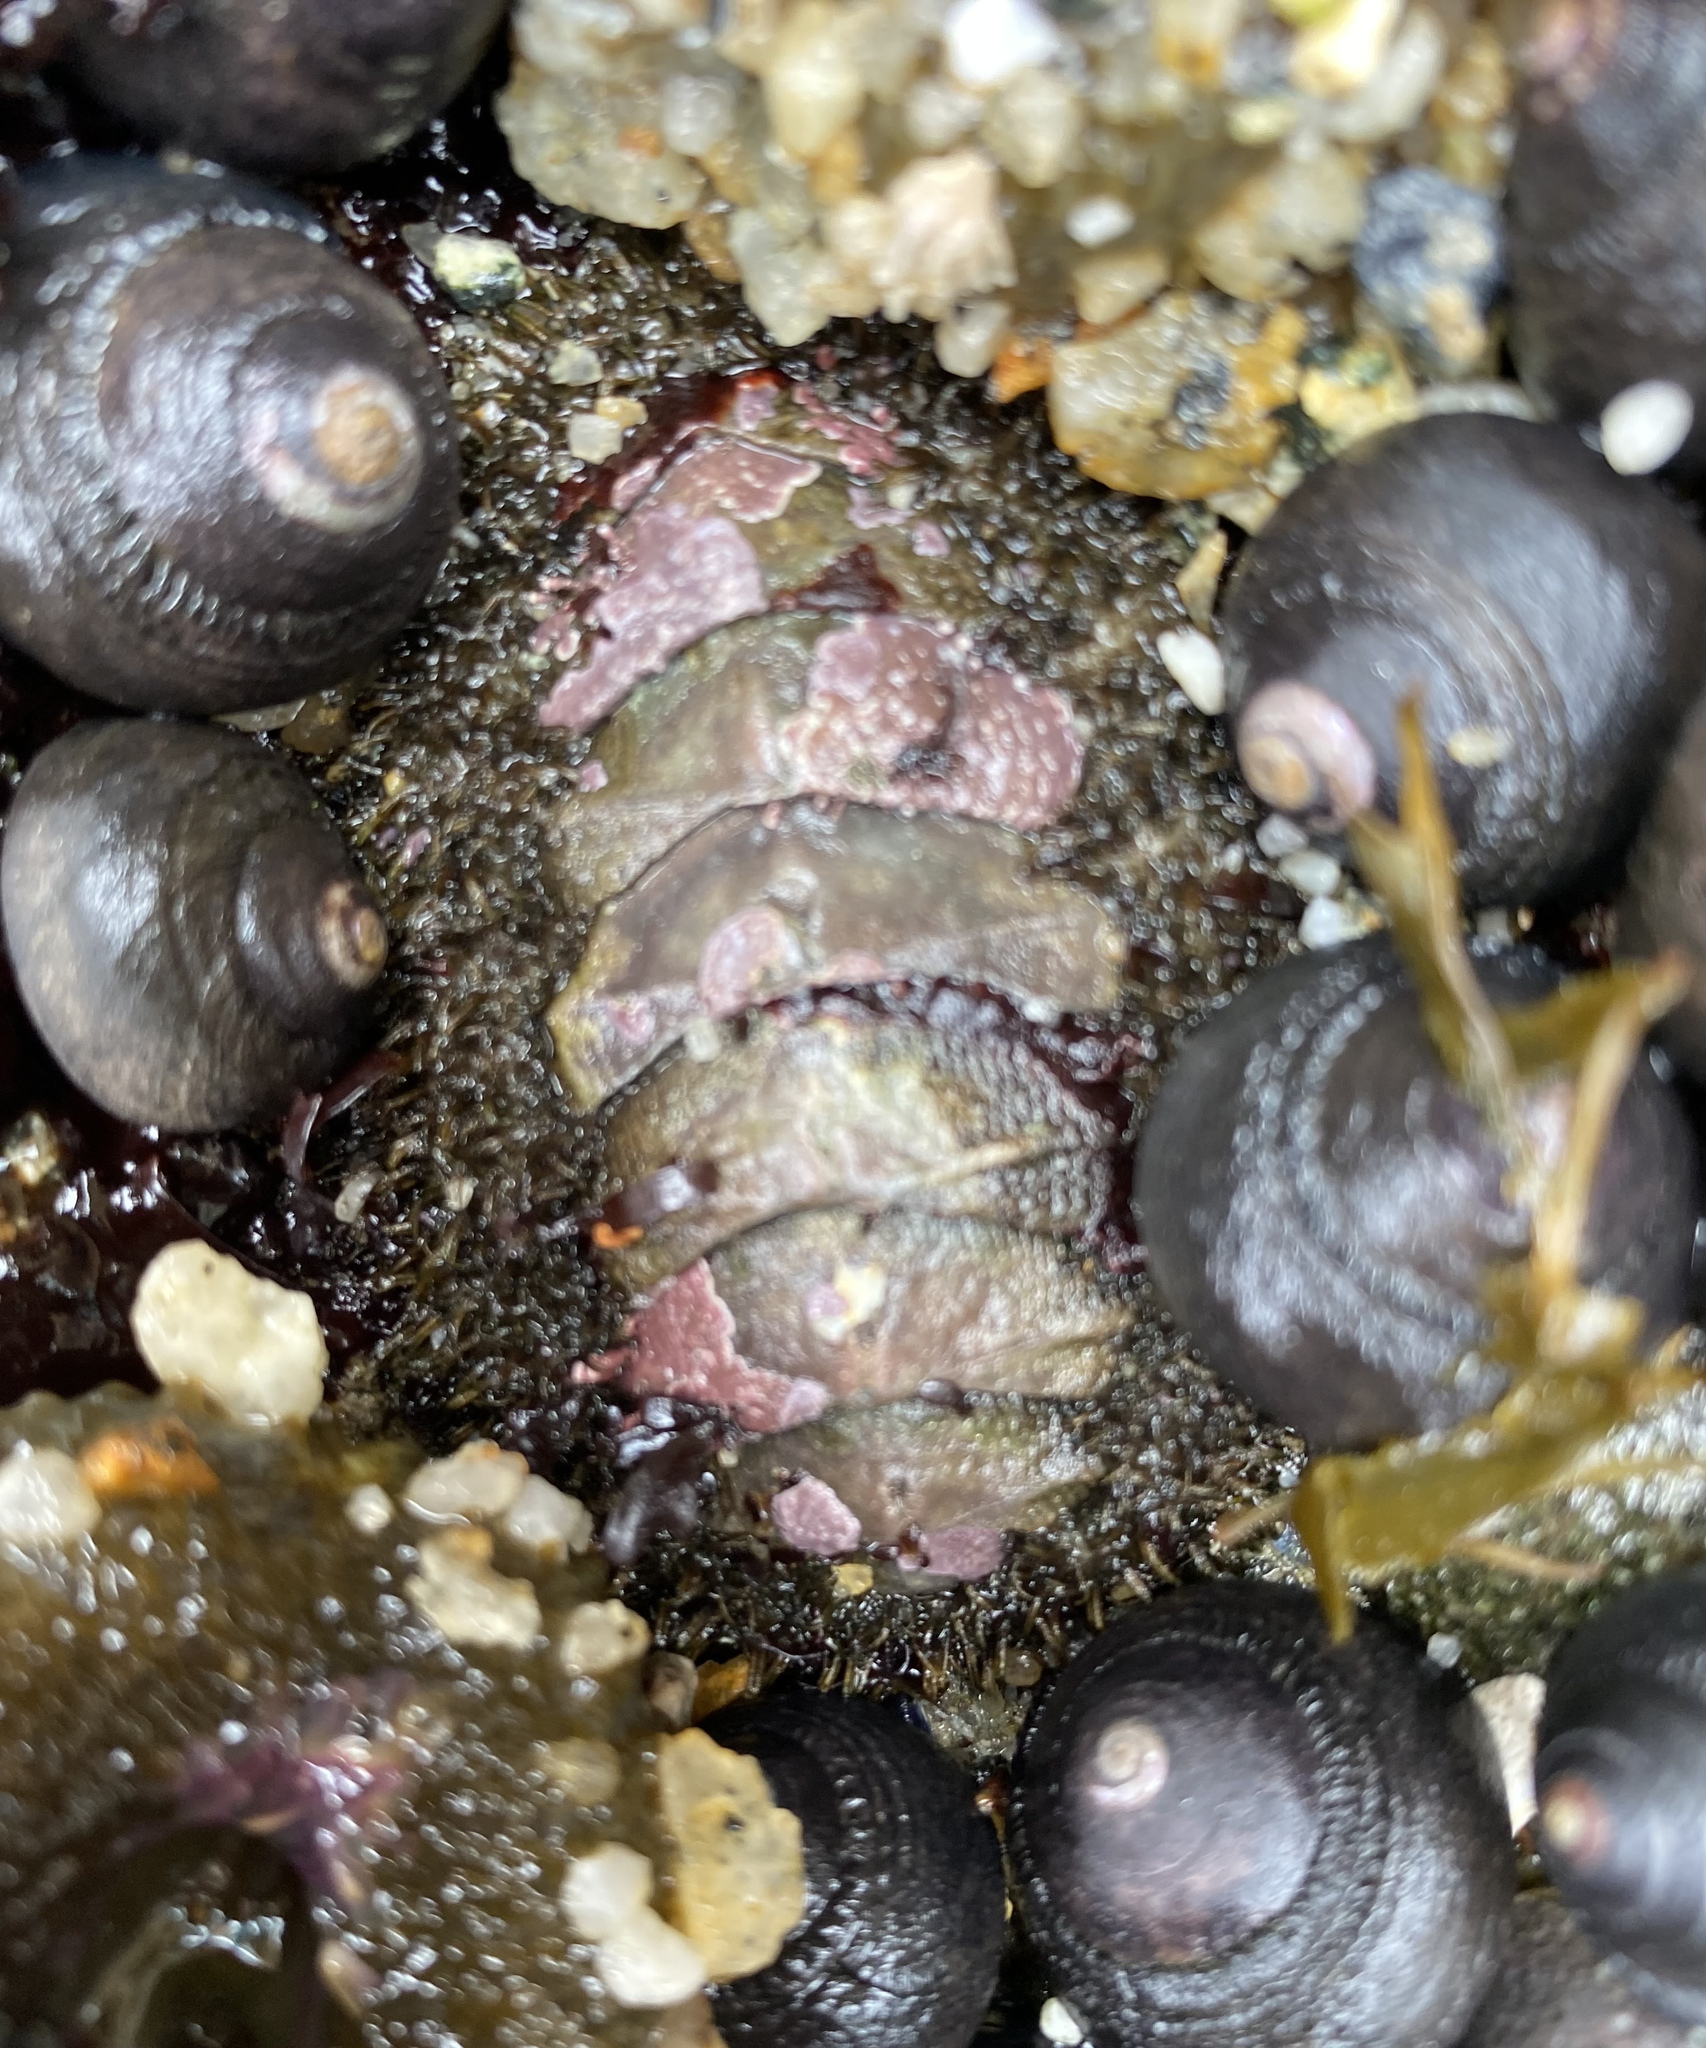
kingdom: Animalia
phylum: Mollusca
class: Polyplacophora
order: Chitonida
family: Mopaliidae
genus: Mopalia
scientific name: Mopalia muscosa
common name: Mossy chiton
